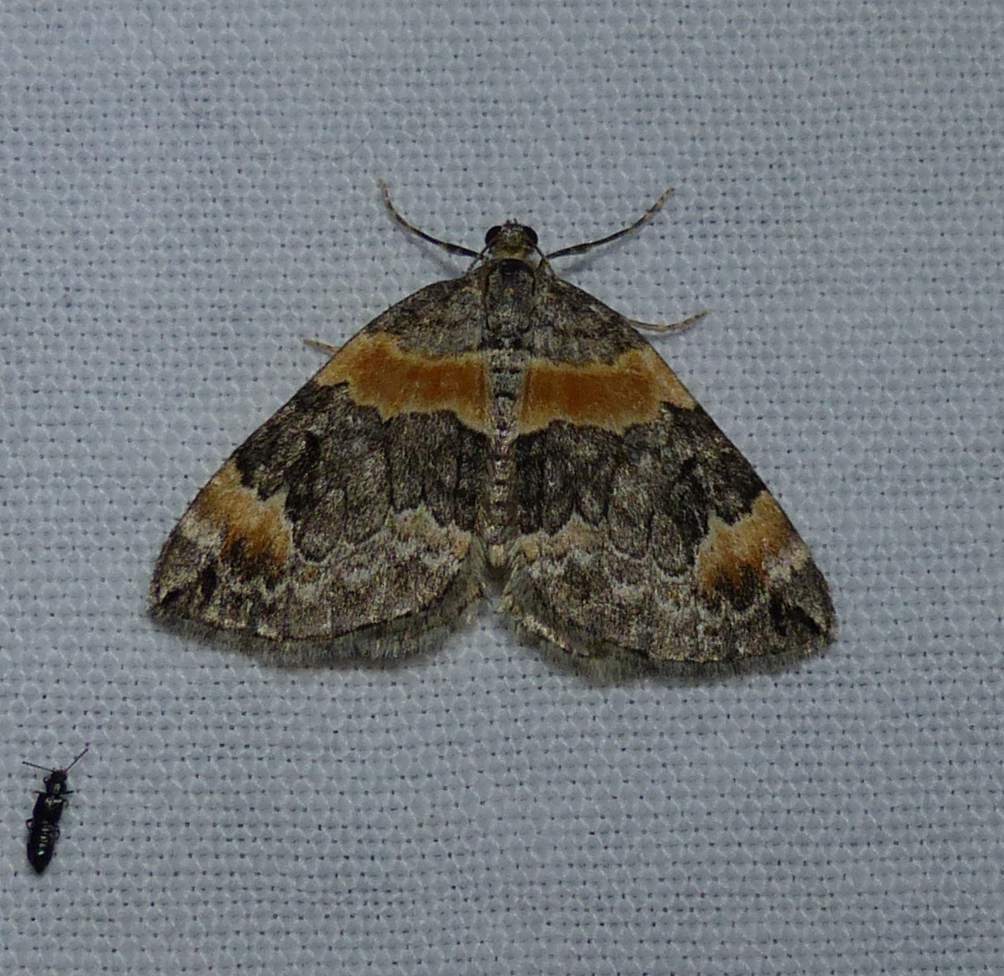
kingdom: Animalia
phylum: Arthropoda
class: Insecta
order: Lepidoptera
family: Geometridae
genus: Dysstroma
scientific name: Dysstroma hersiliata
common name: Orange-barred carpet
